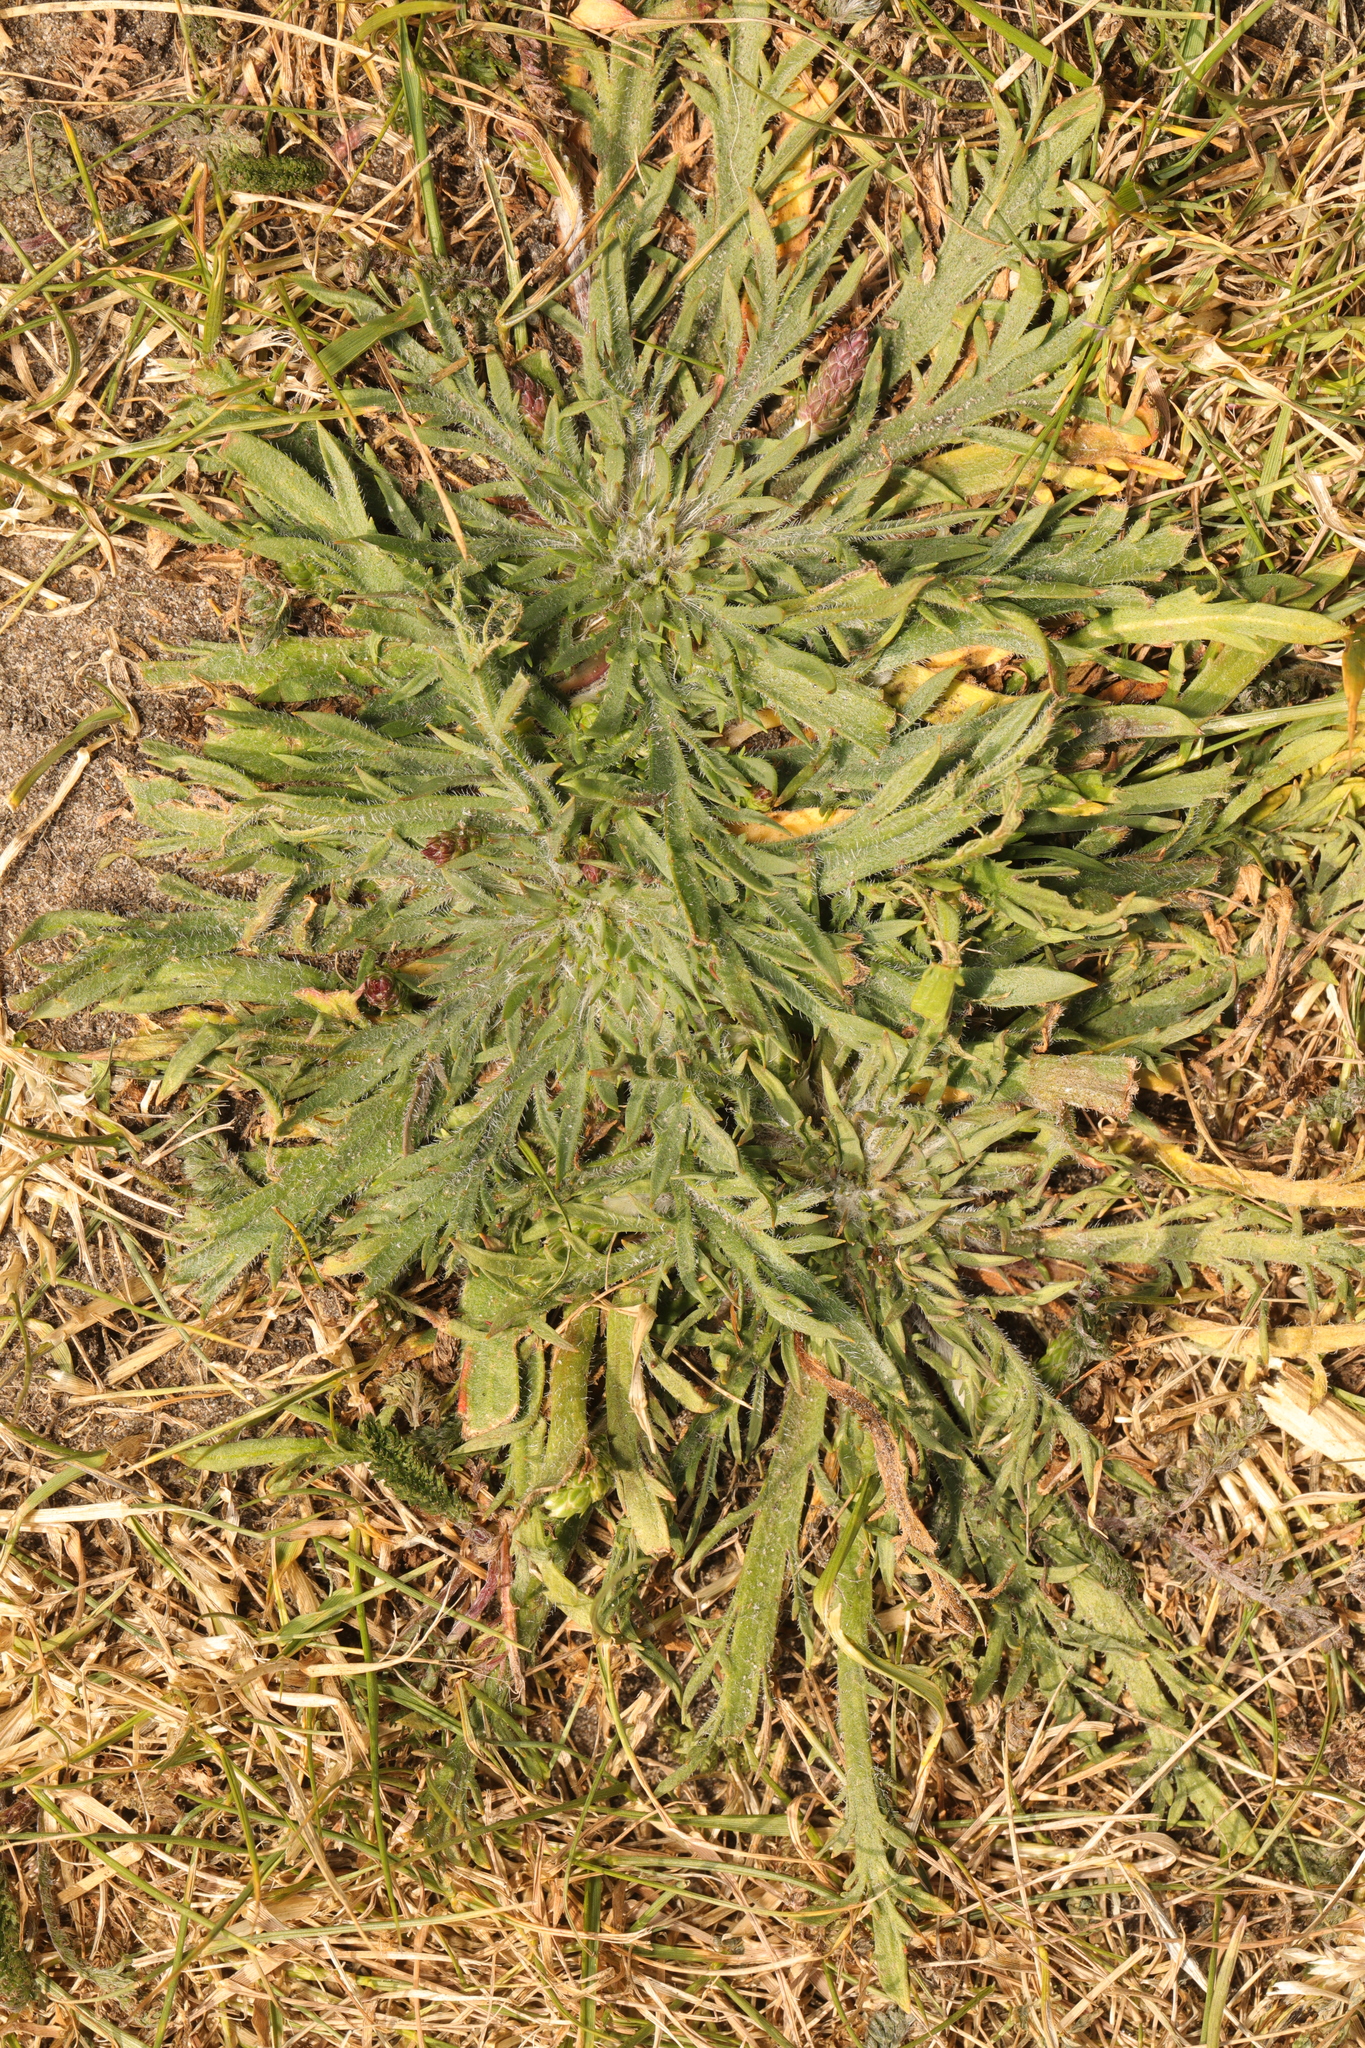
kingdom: Plantae
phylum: Tracheophyta
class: Magnoliopsida
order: Lamiales
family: Plantaginaceae
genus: Plantago
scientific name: Plantago coronopus
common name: Buck's-horn plantain
